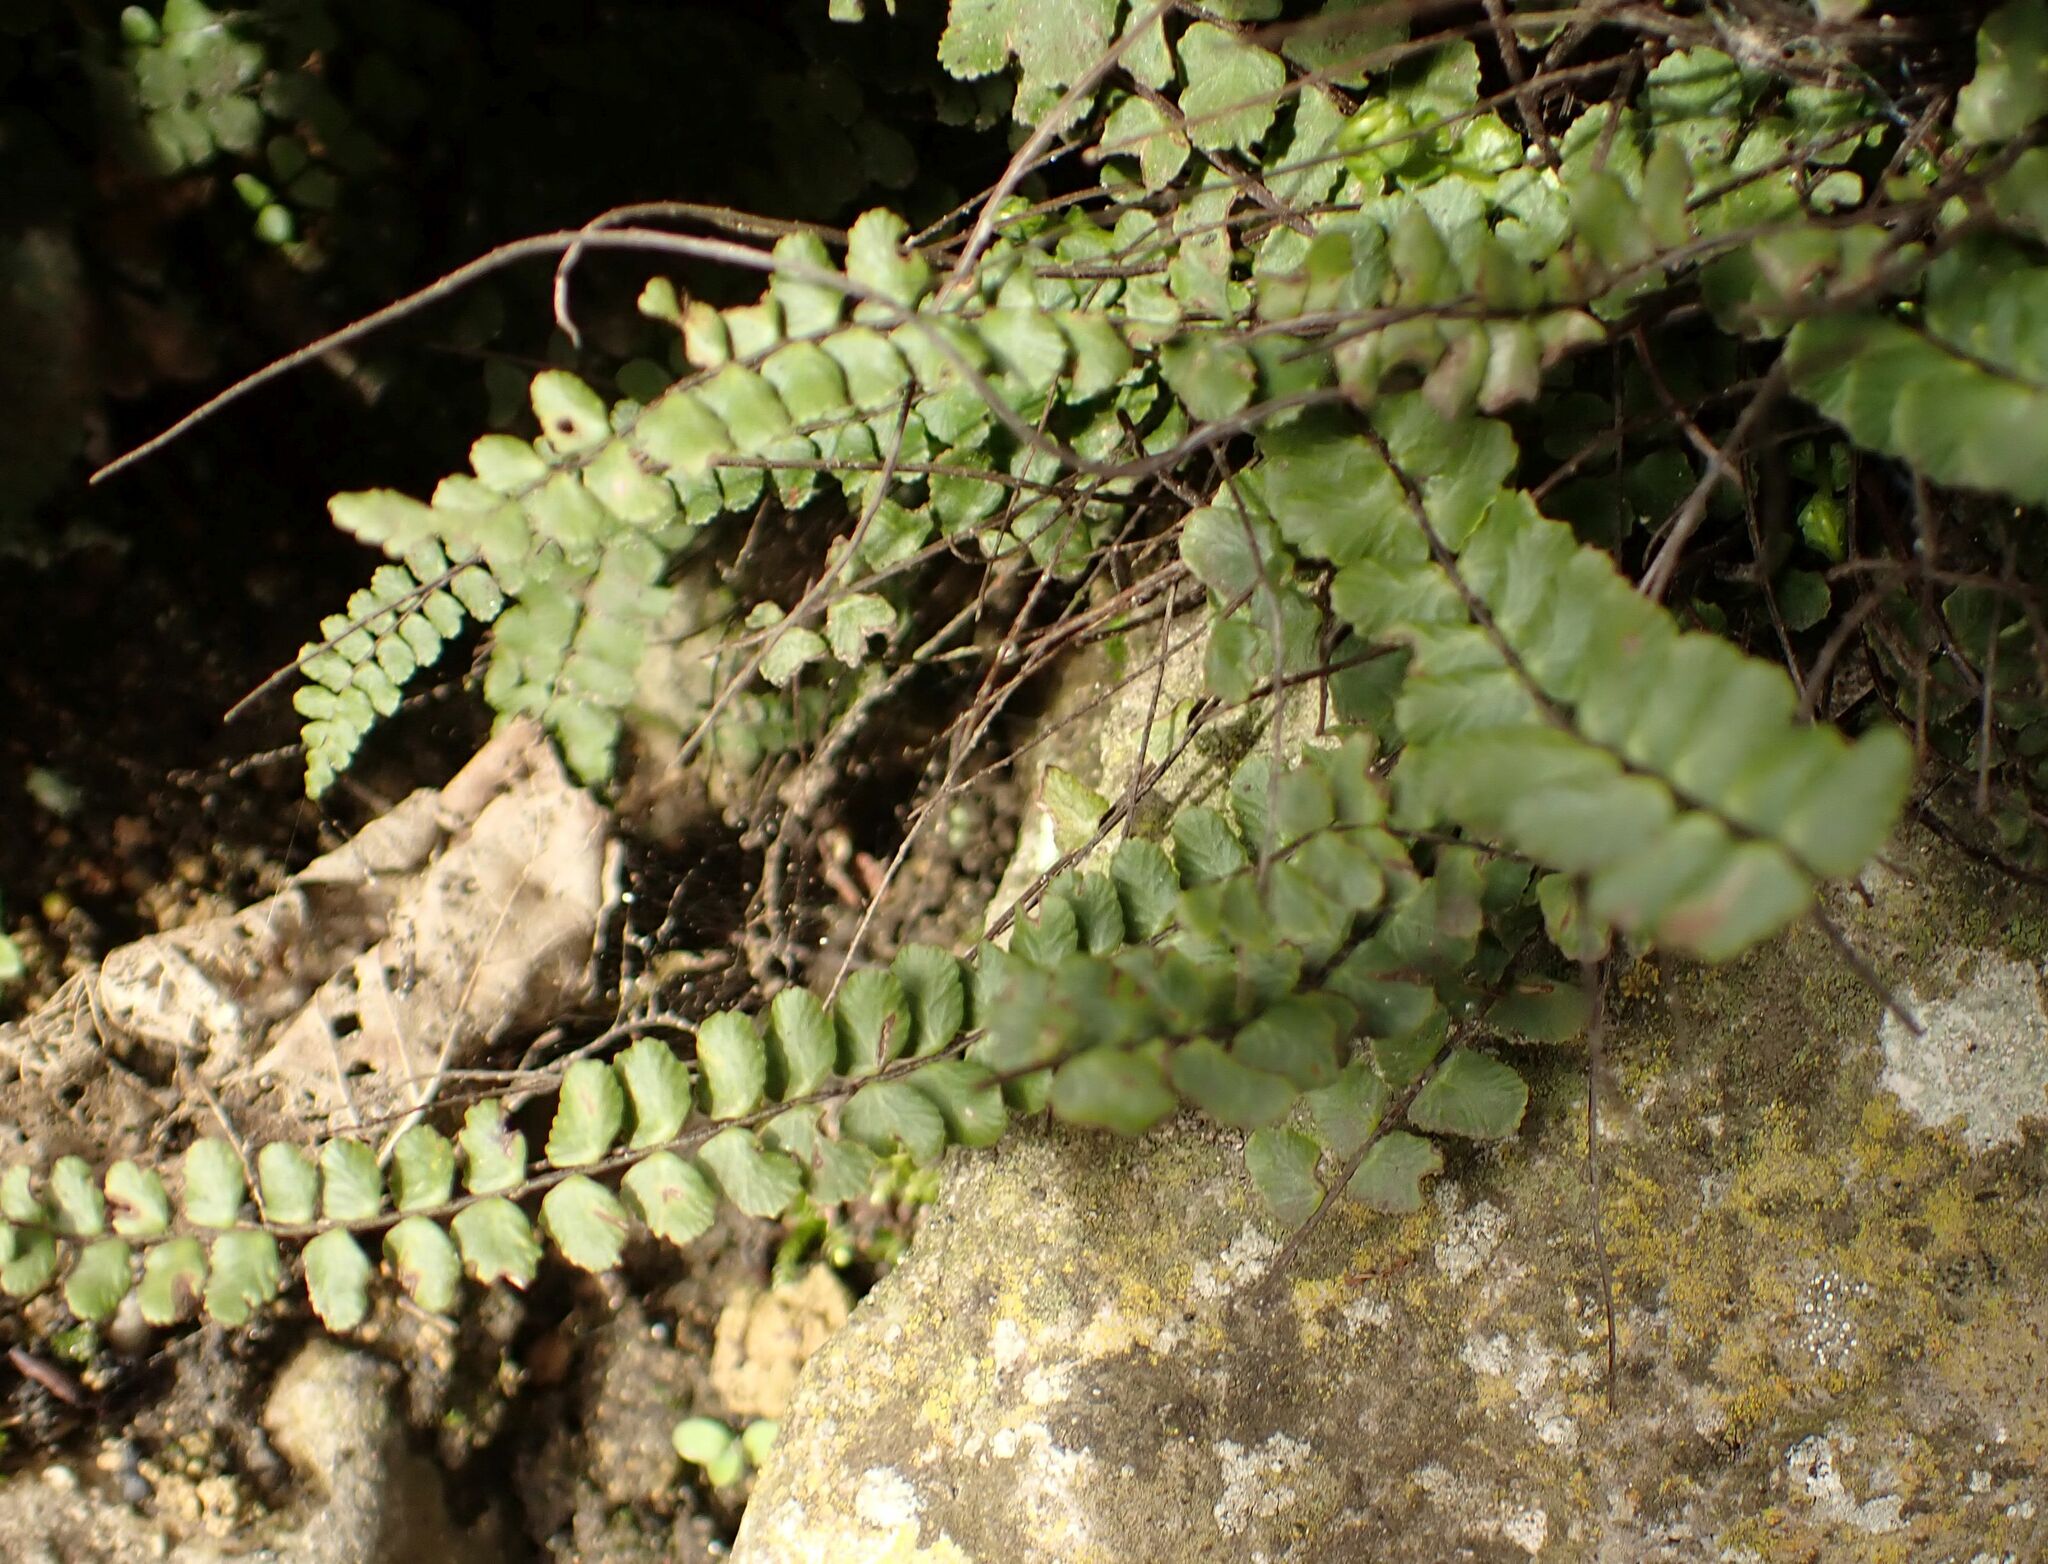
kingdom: Plantae
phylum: Tracheophyta
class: Polypodiopsida
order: Polypodiales
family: Aspleniaceae
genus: Asplenium
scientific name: Asplenium trichomanes
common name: Maidenhair spleenwort
